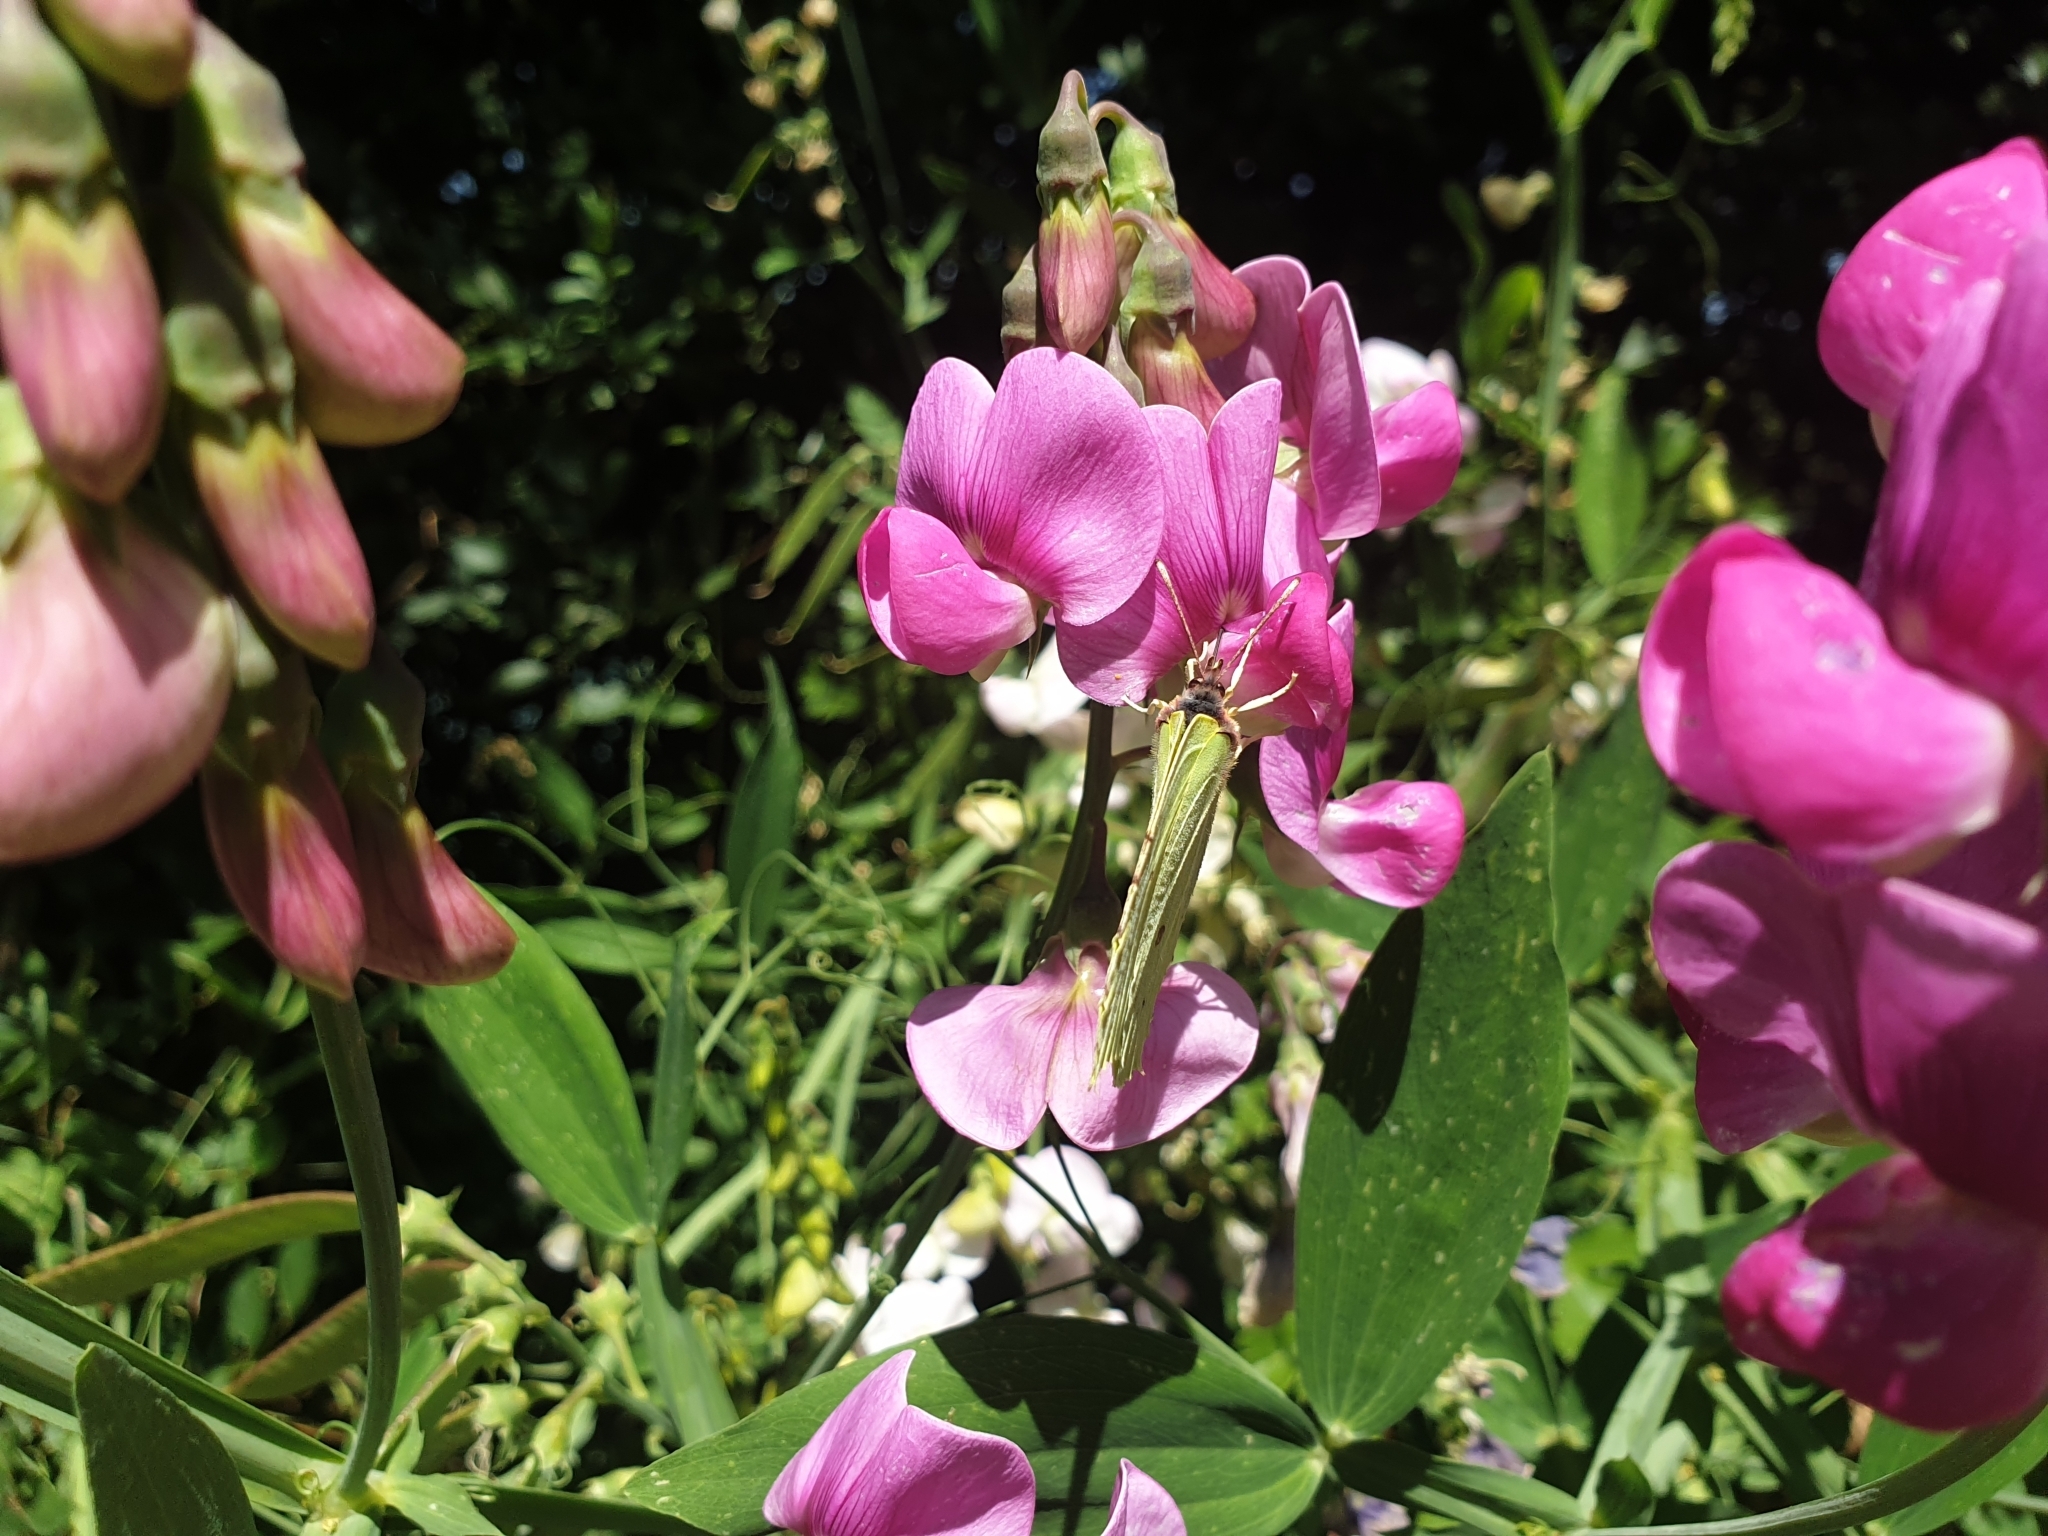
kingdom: Plantae
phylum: Tracheophyta
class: Magnoliopsida
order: Fabales
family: Fabaceae
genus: Lathyrus
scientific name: Lathyrus latifolius
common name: Perennial pea
